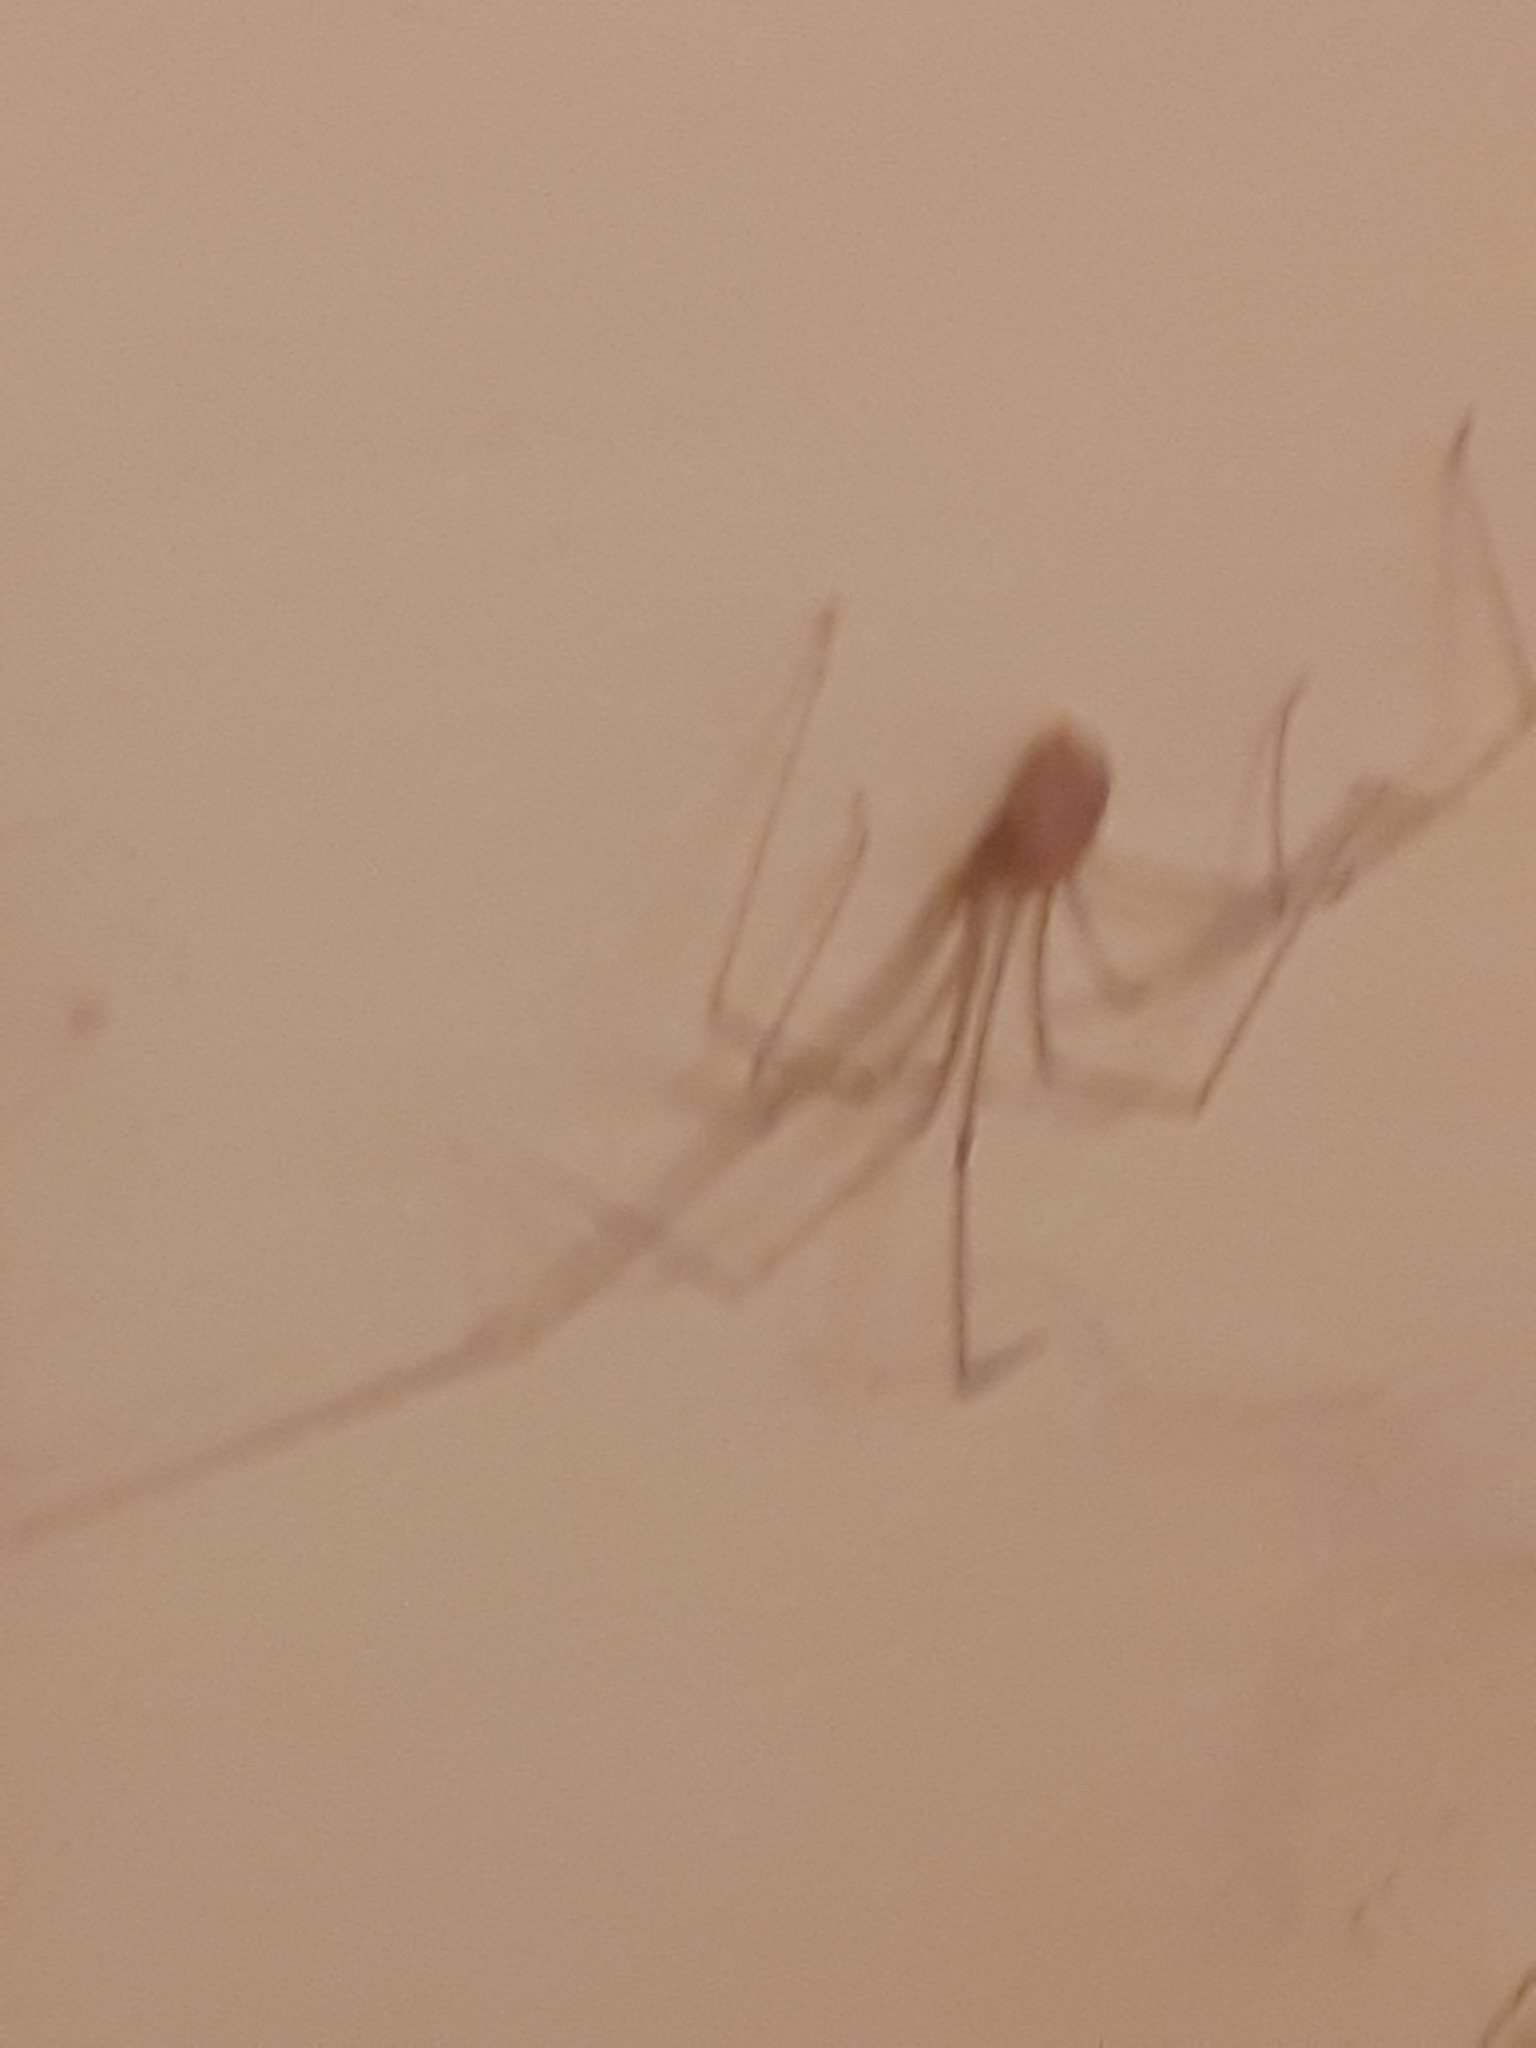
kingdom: Animalia
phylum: Arthropoda
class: Arachnida
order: Araneae
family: Pholcidae
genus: Pholcus
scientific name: Pholcus phalangioides
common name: Longbodied cellar spider
